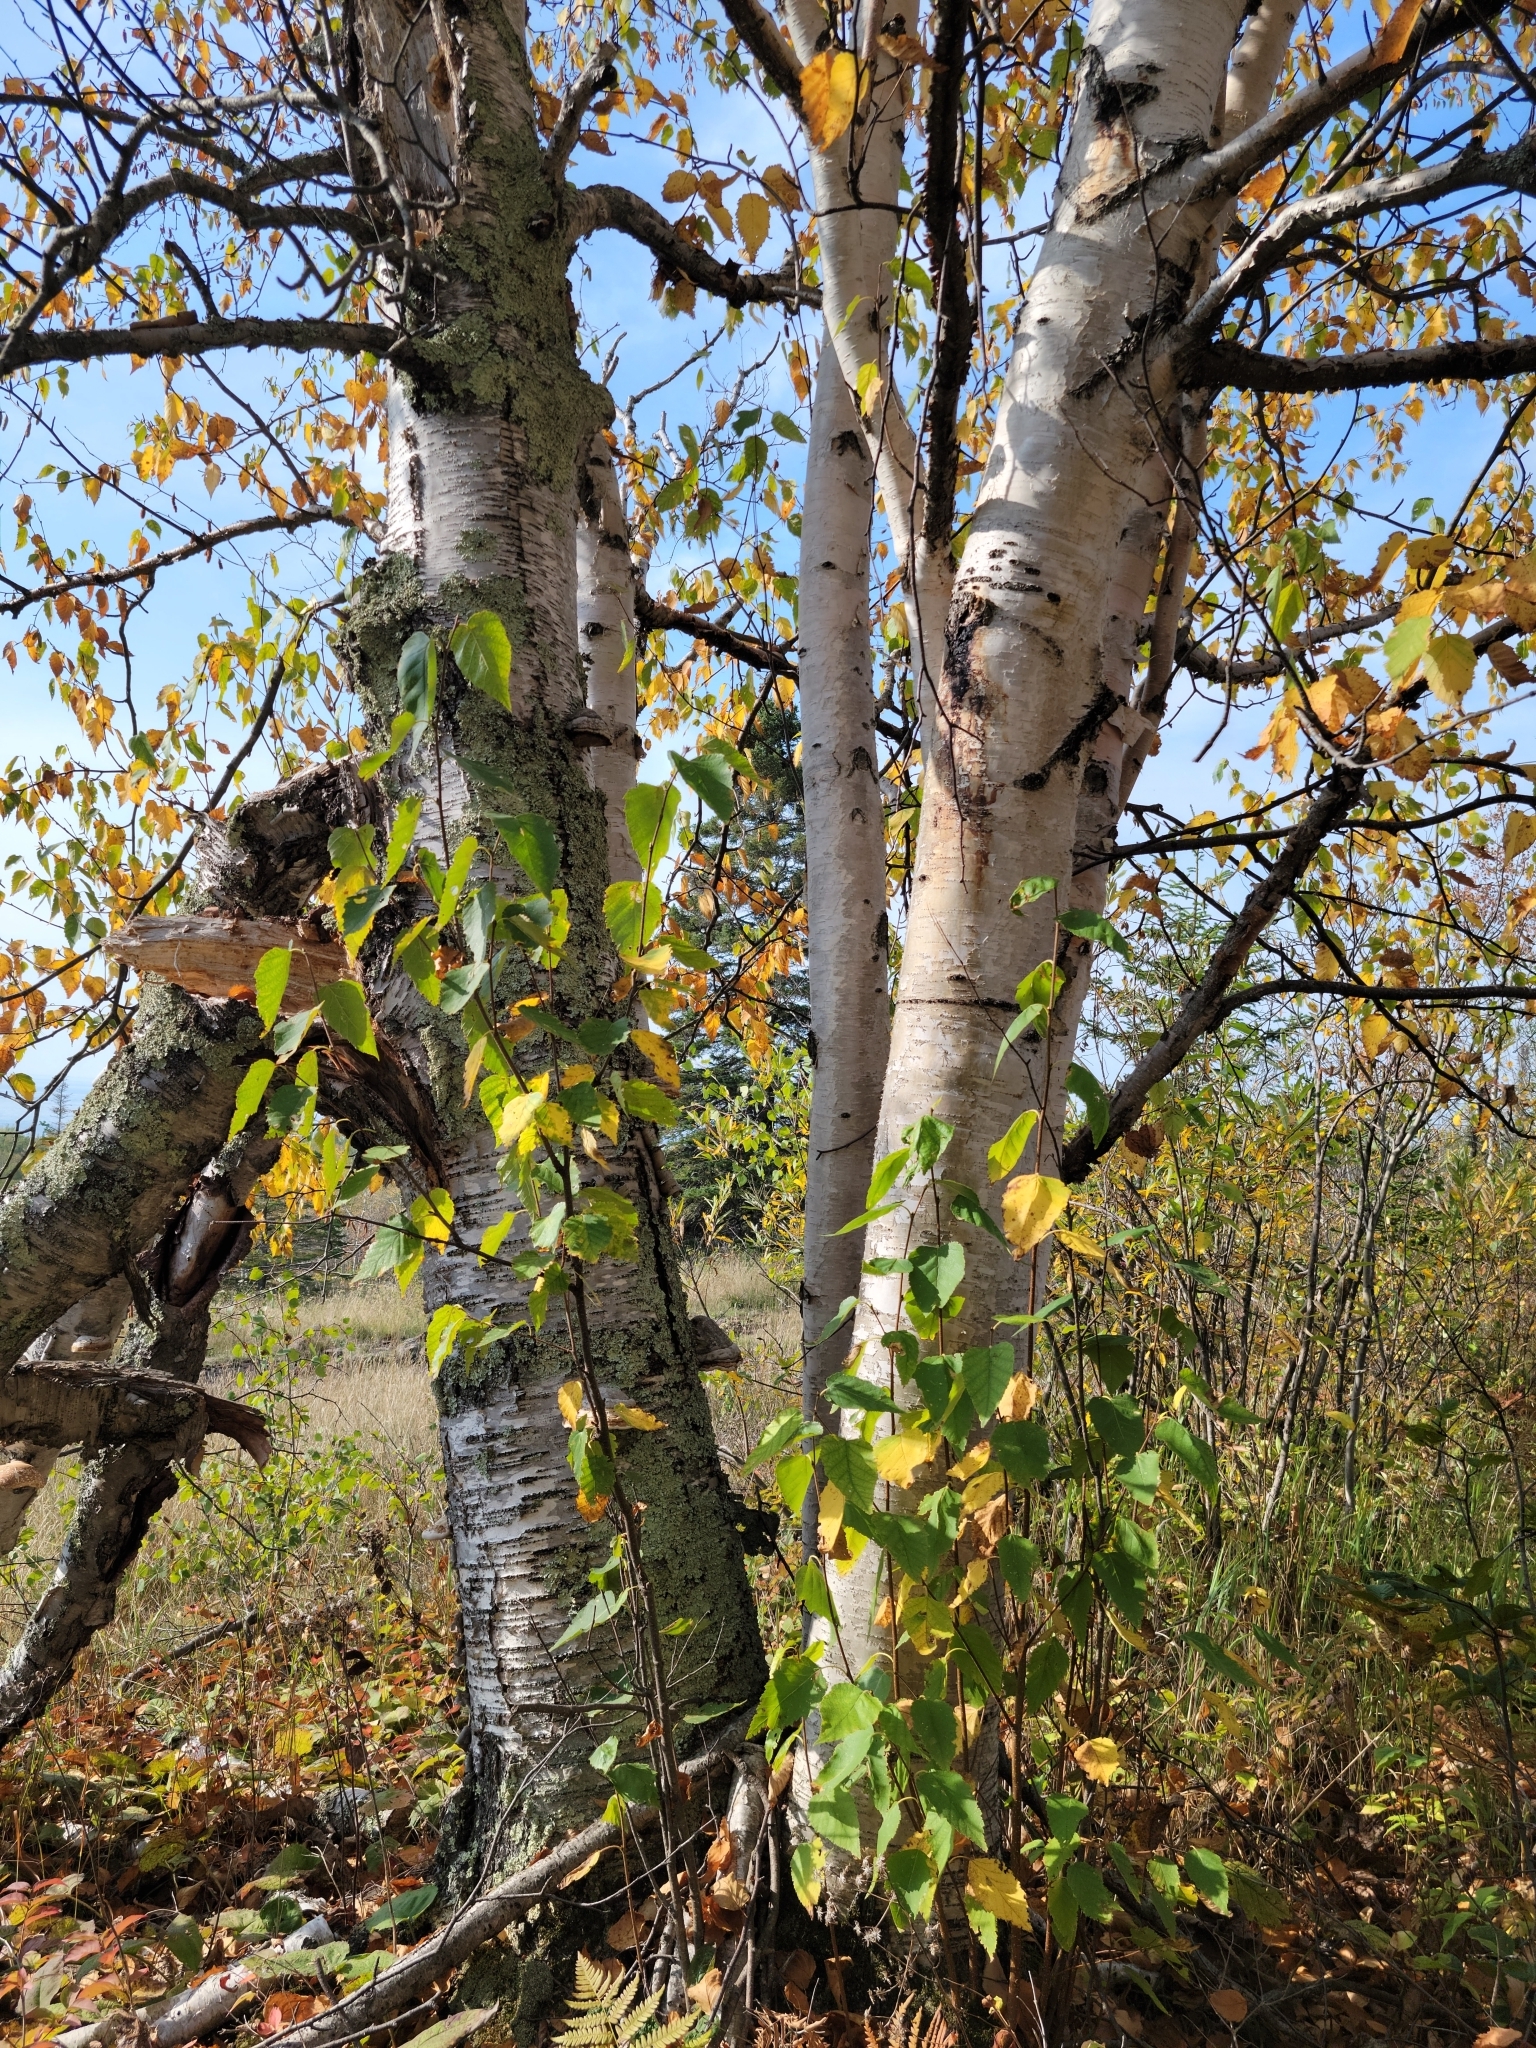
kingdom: Plantae
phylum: Tracheophyta
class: Magnoliopsida
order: Fagales
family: Betulaceae
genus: Betula
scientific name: Betula papyrifera
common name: Paper birch
